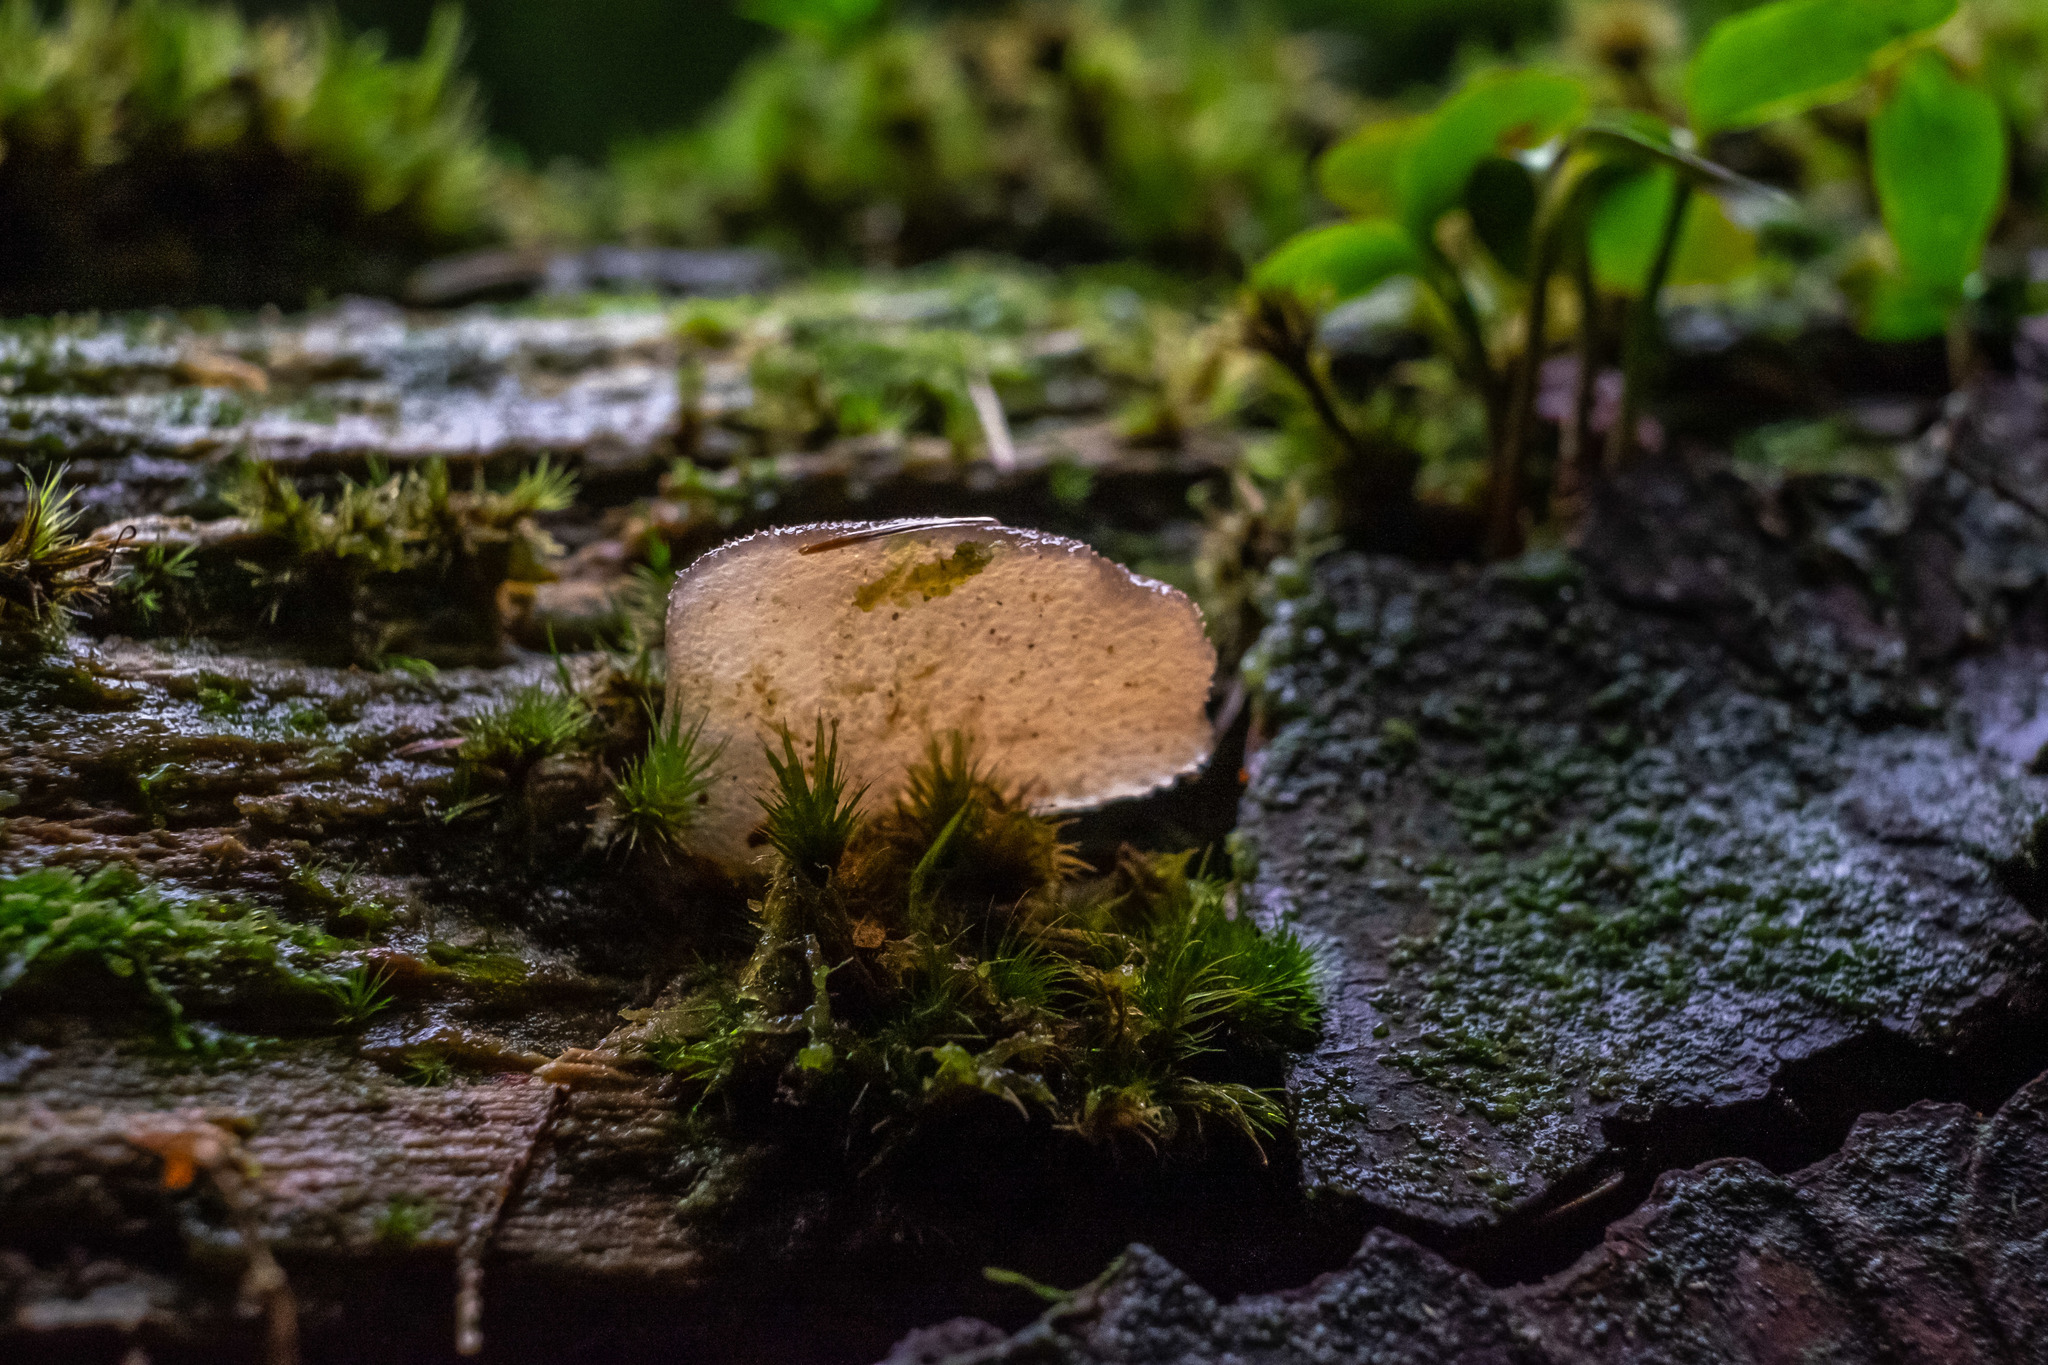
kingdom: Fungi
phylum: Basidiomycota
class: Agaricomycetes
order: Auriculariales
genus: Pseudohydnum
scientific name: Pseudohydnum gelatinosum
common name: Jelly tongue
